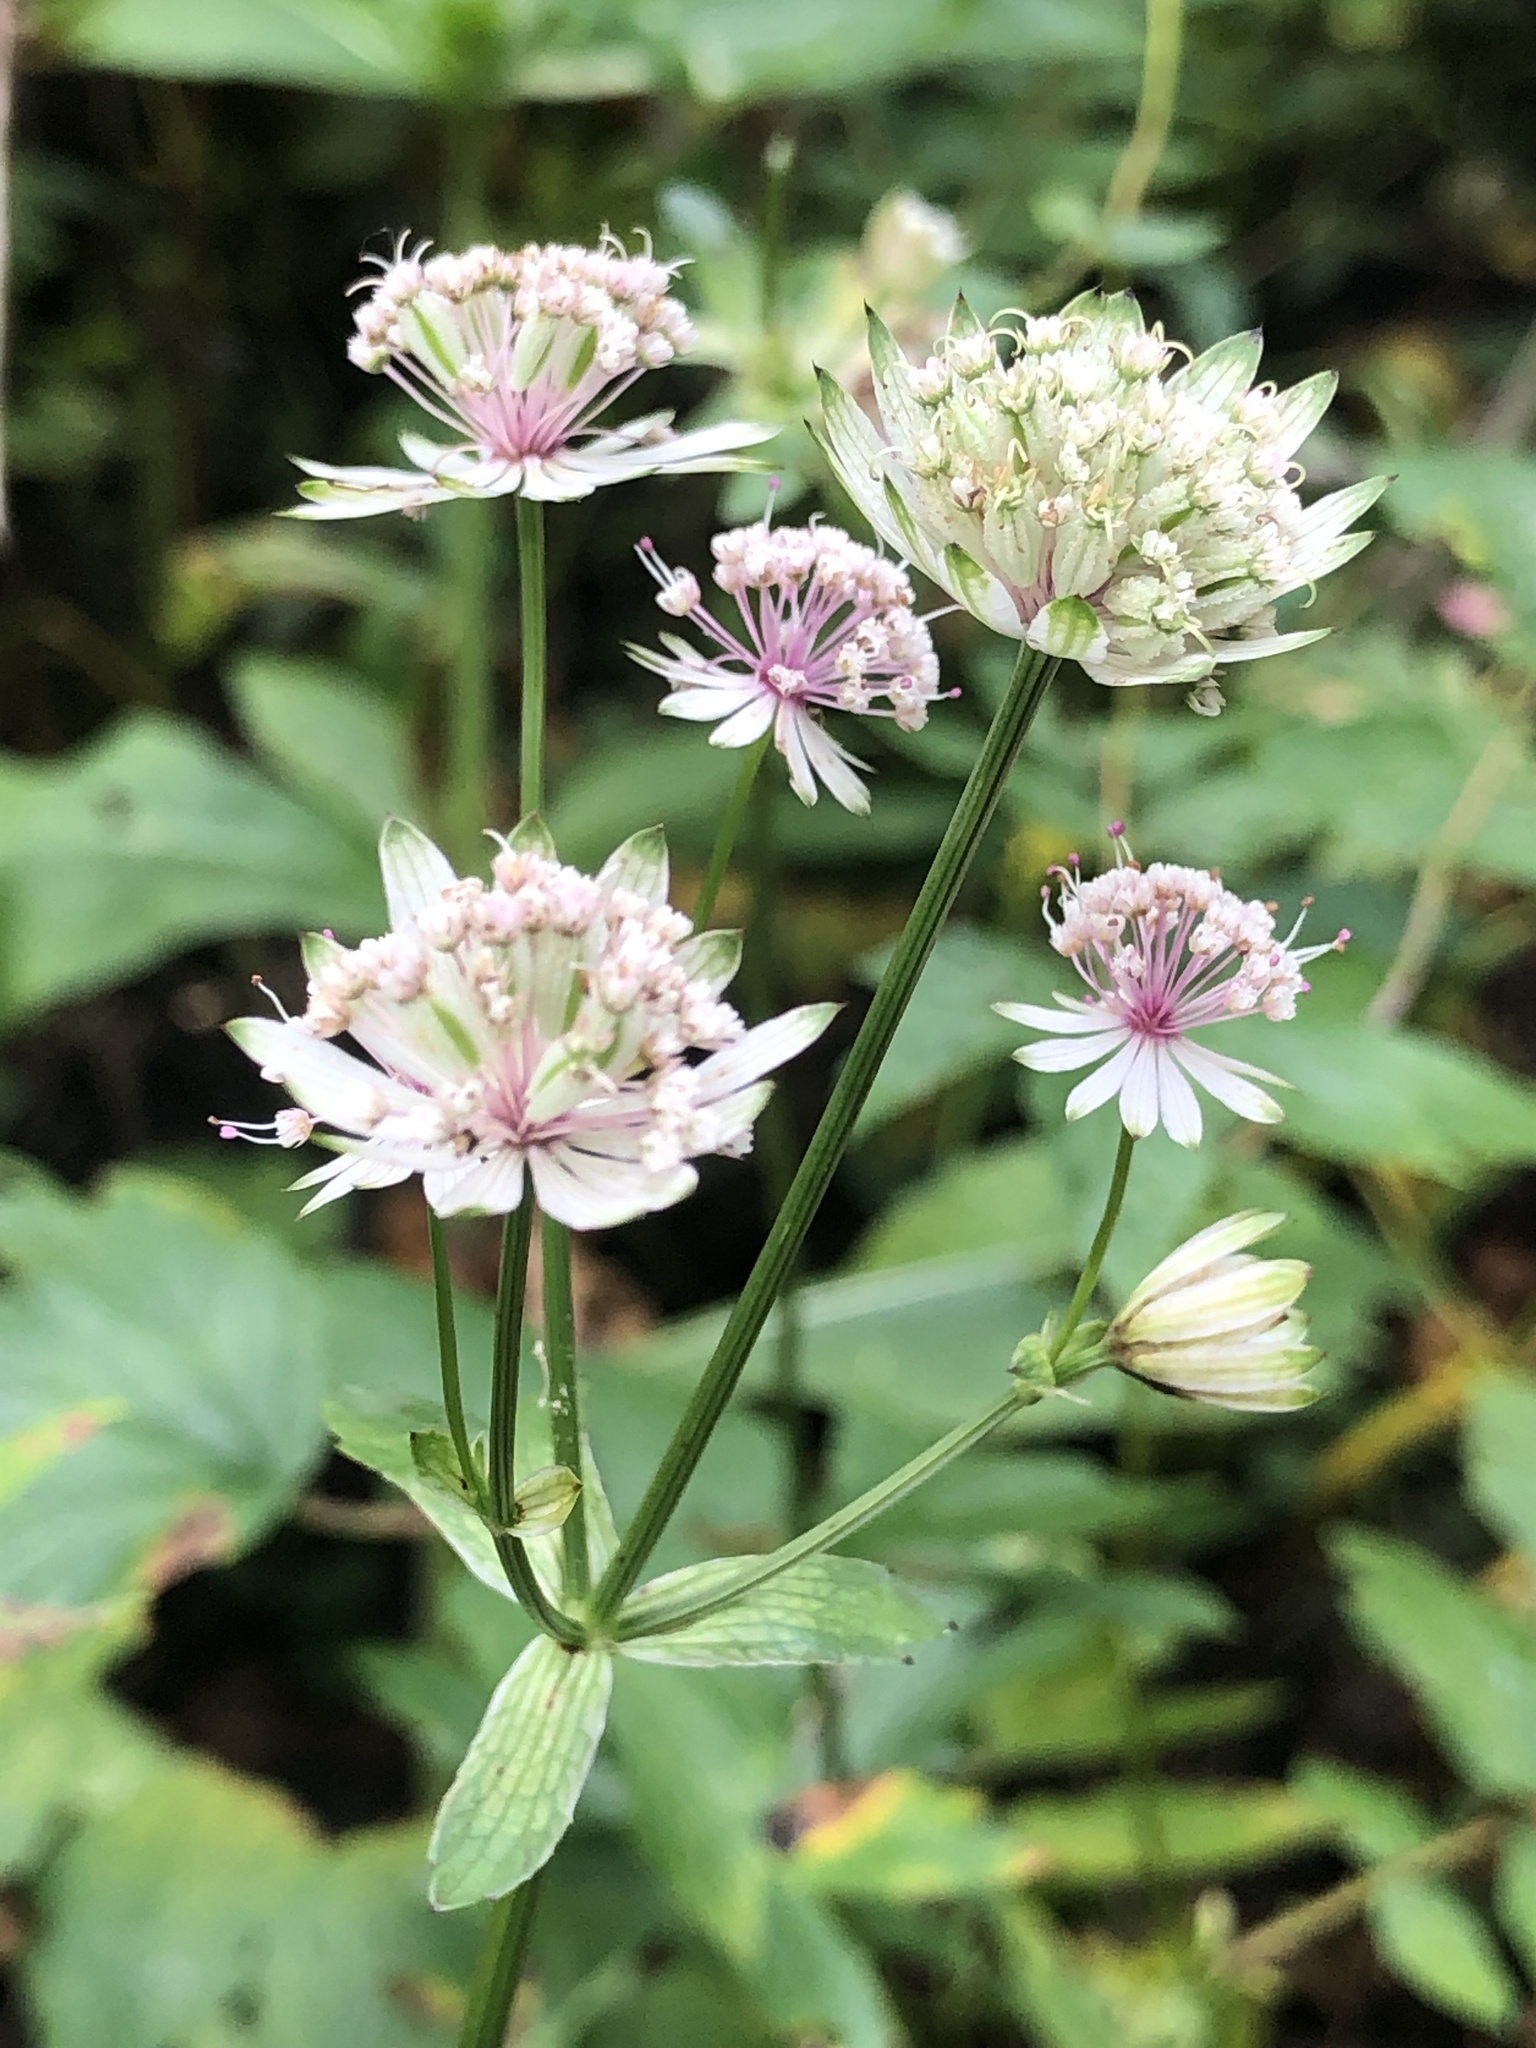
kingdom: Plantae
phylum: Tracheophyta
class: Magnoliopsida
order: Apiales
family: Apiaceae
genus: Astrantia
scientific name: Astrantia major
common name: Greater masterwort
